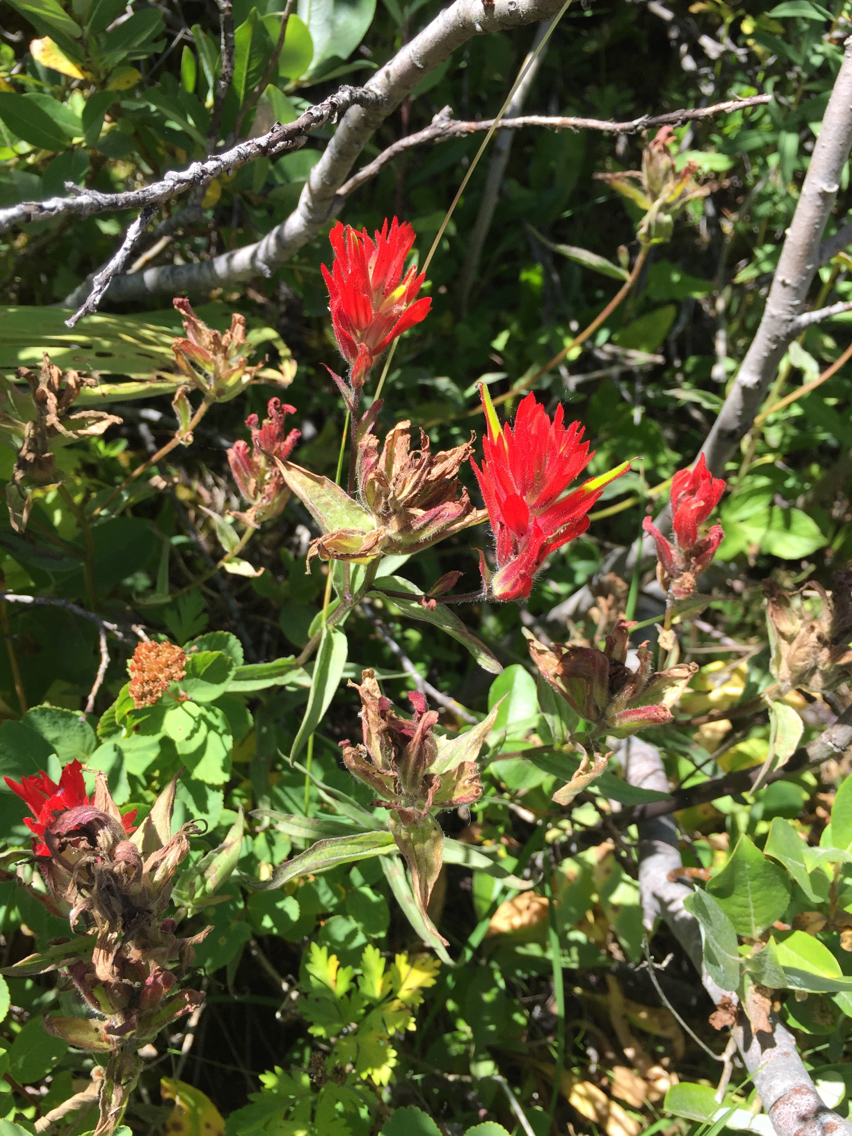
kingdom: Plantae
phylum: Tracheophyta
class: Magnoliopsida
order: Lamiales
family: Orobanchaceae
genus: Castilleja
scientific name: Castilleja miniata
